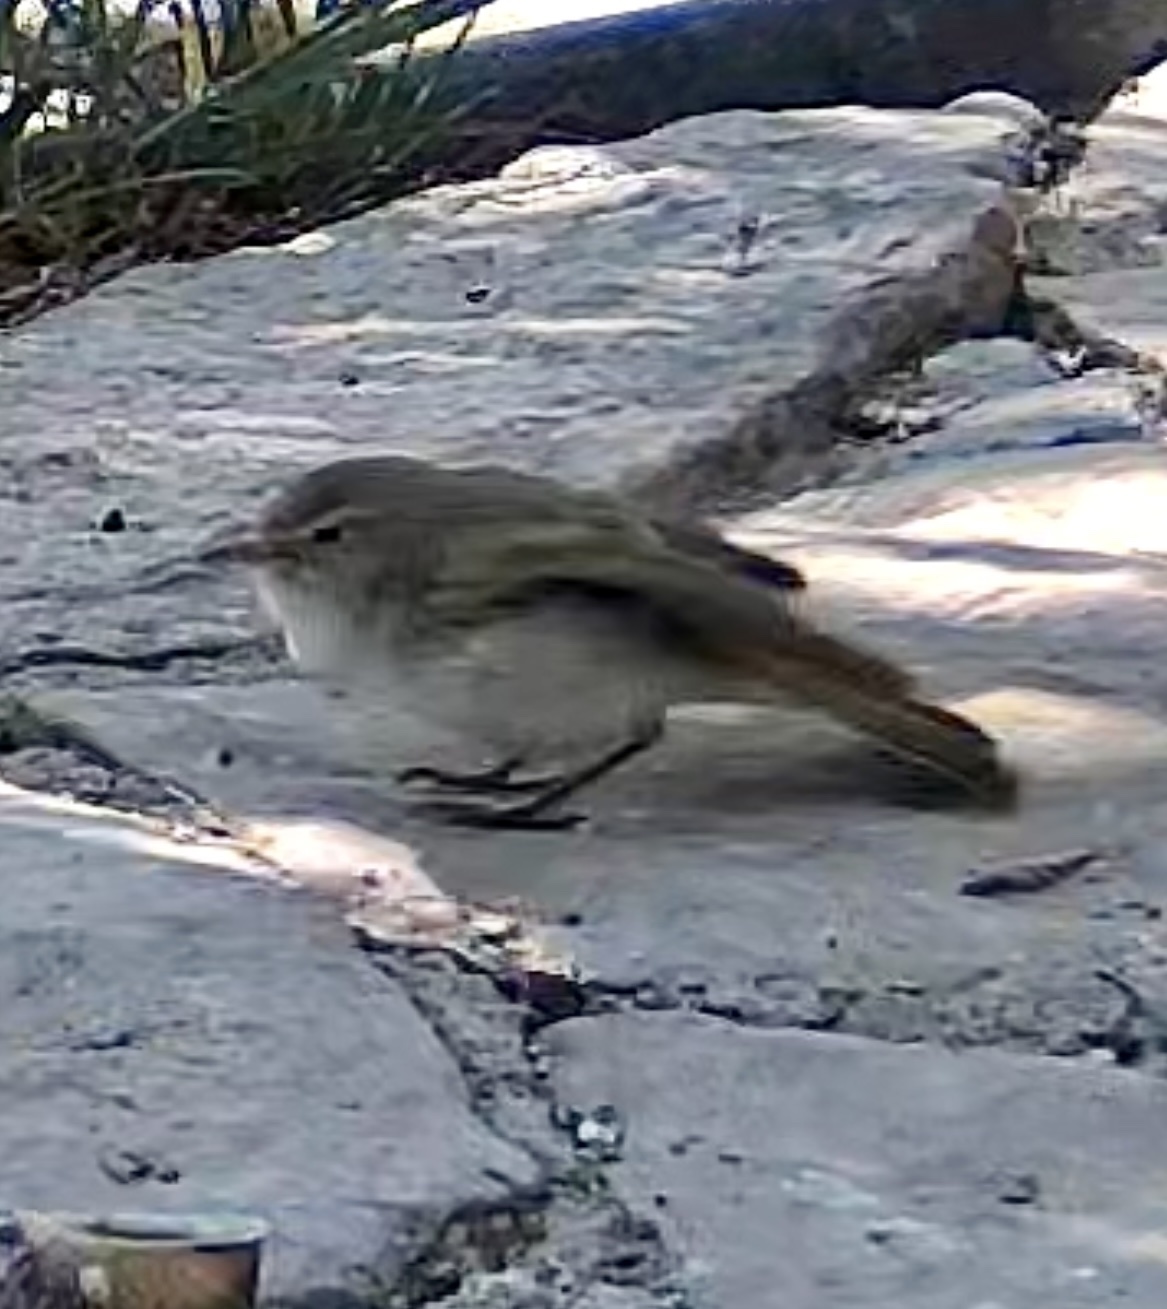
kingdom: Animalia
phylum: Chordata
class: Aves
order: Passeriformes
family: Phylloscopidae
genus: Phylloscopus
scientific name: Phylloscopus
